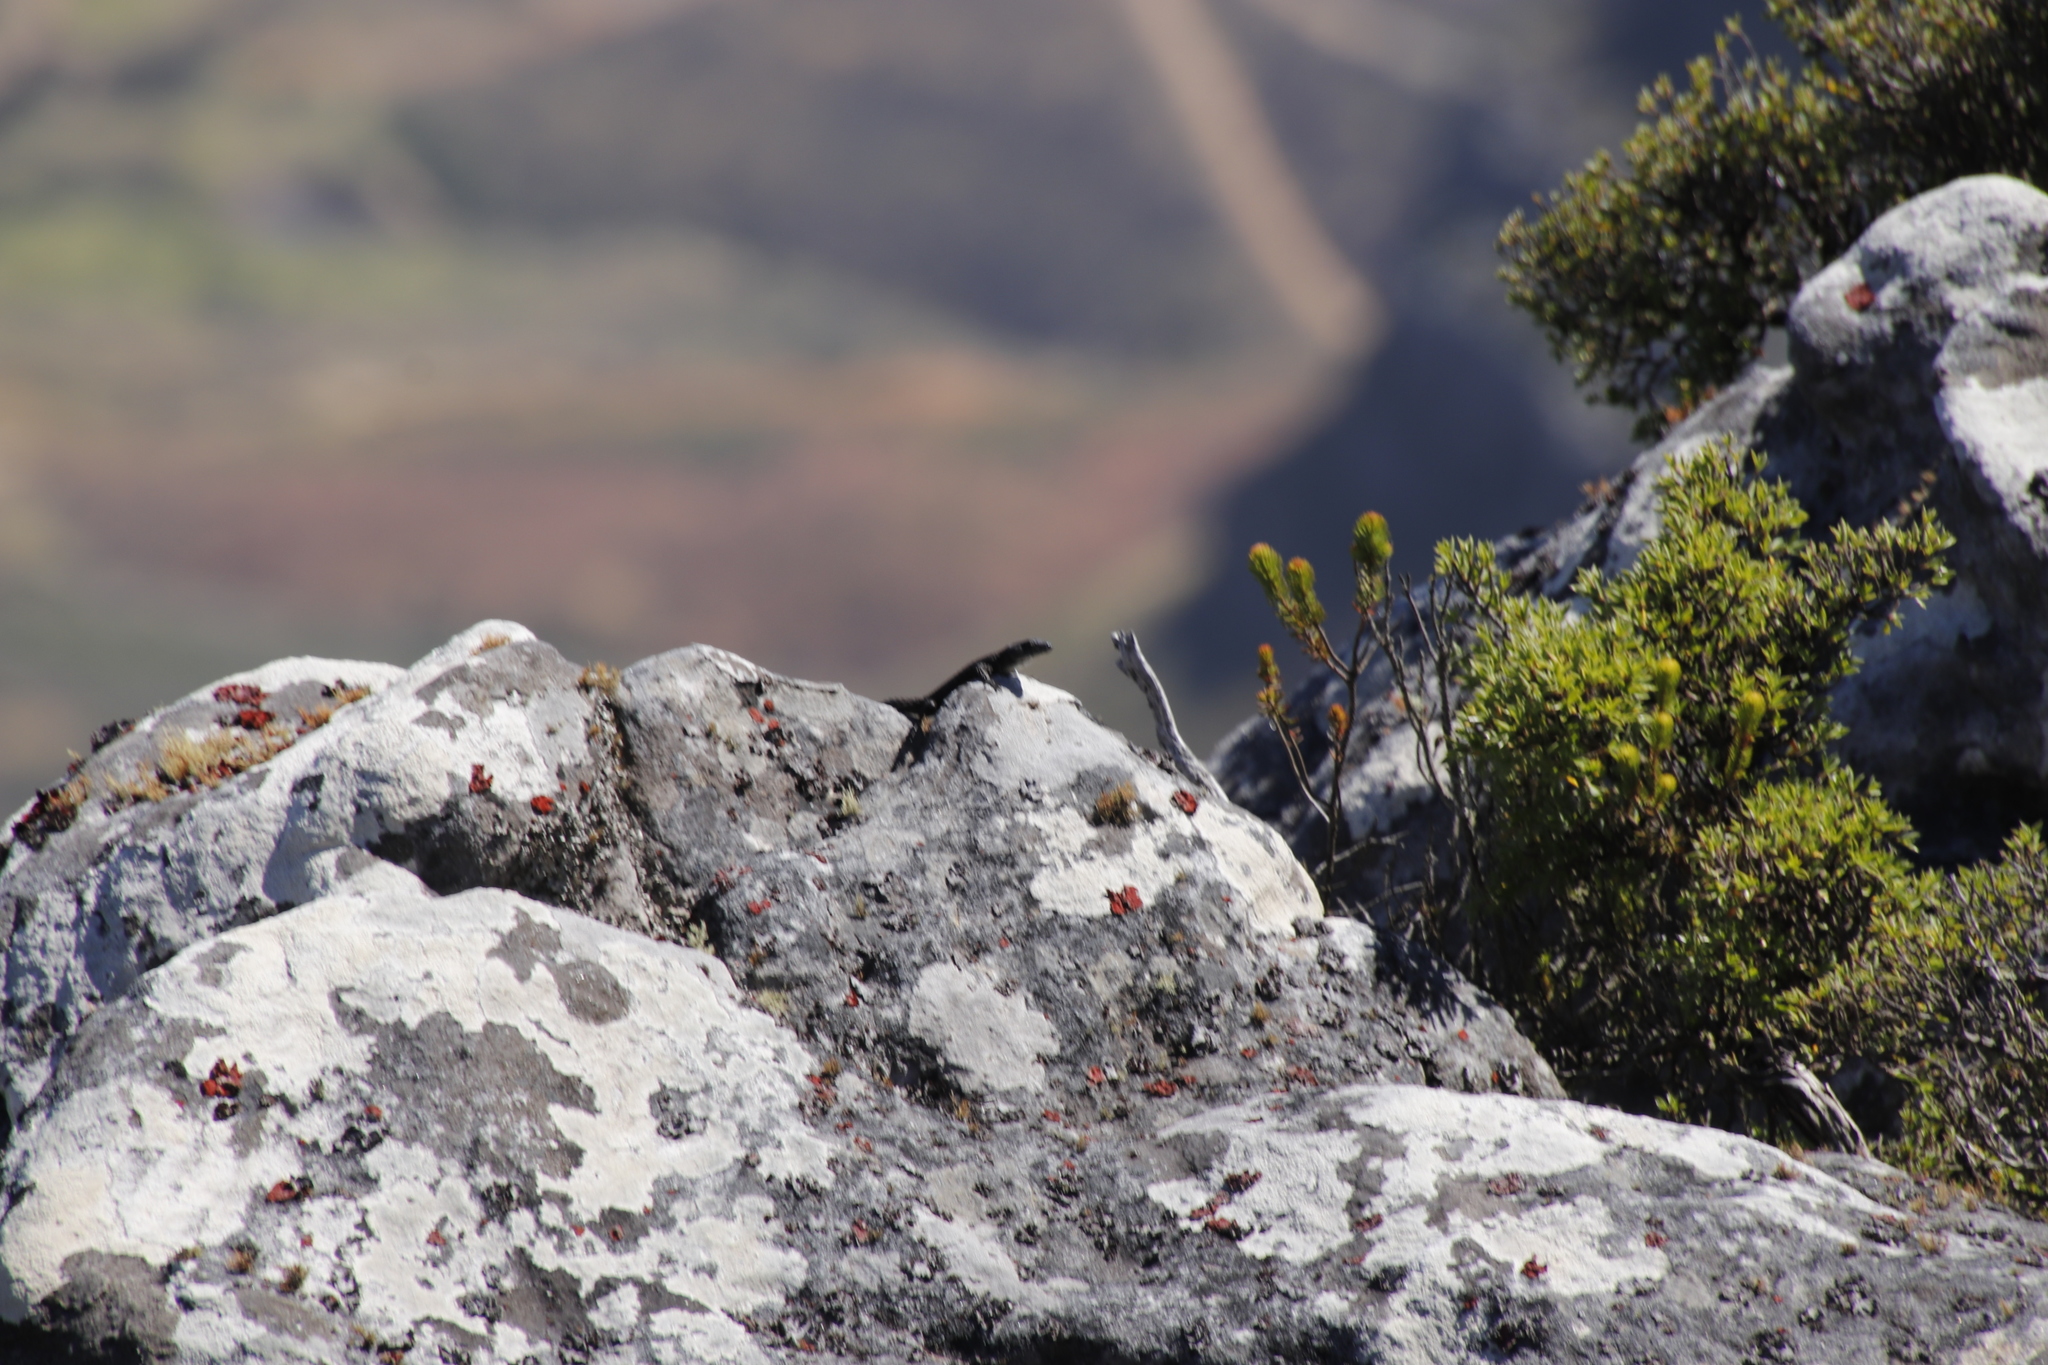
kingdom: Animalia
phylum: Chordata
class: Squamata
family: Cordylidae
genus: Cordylus
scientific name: Cordylus niger
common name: Black girdled lizard
